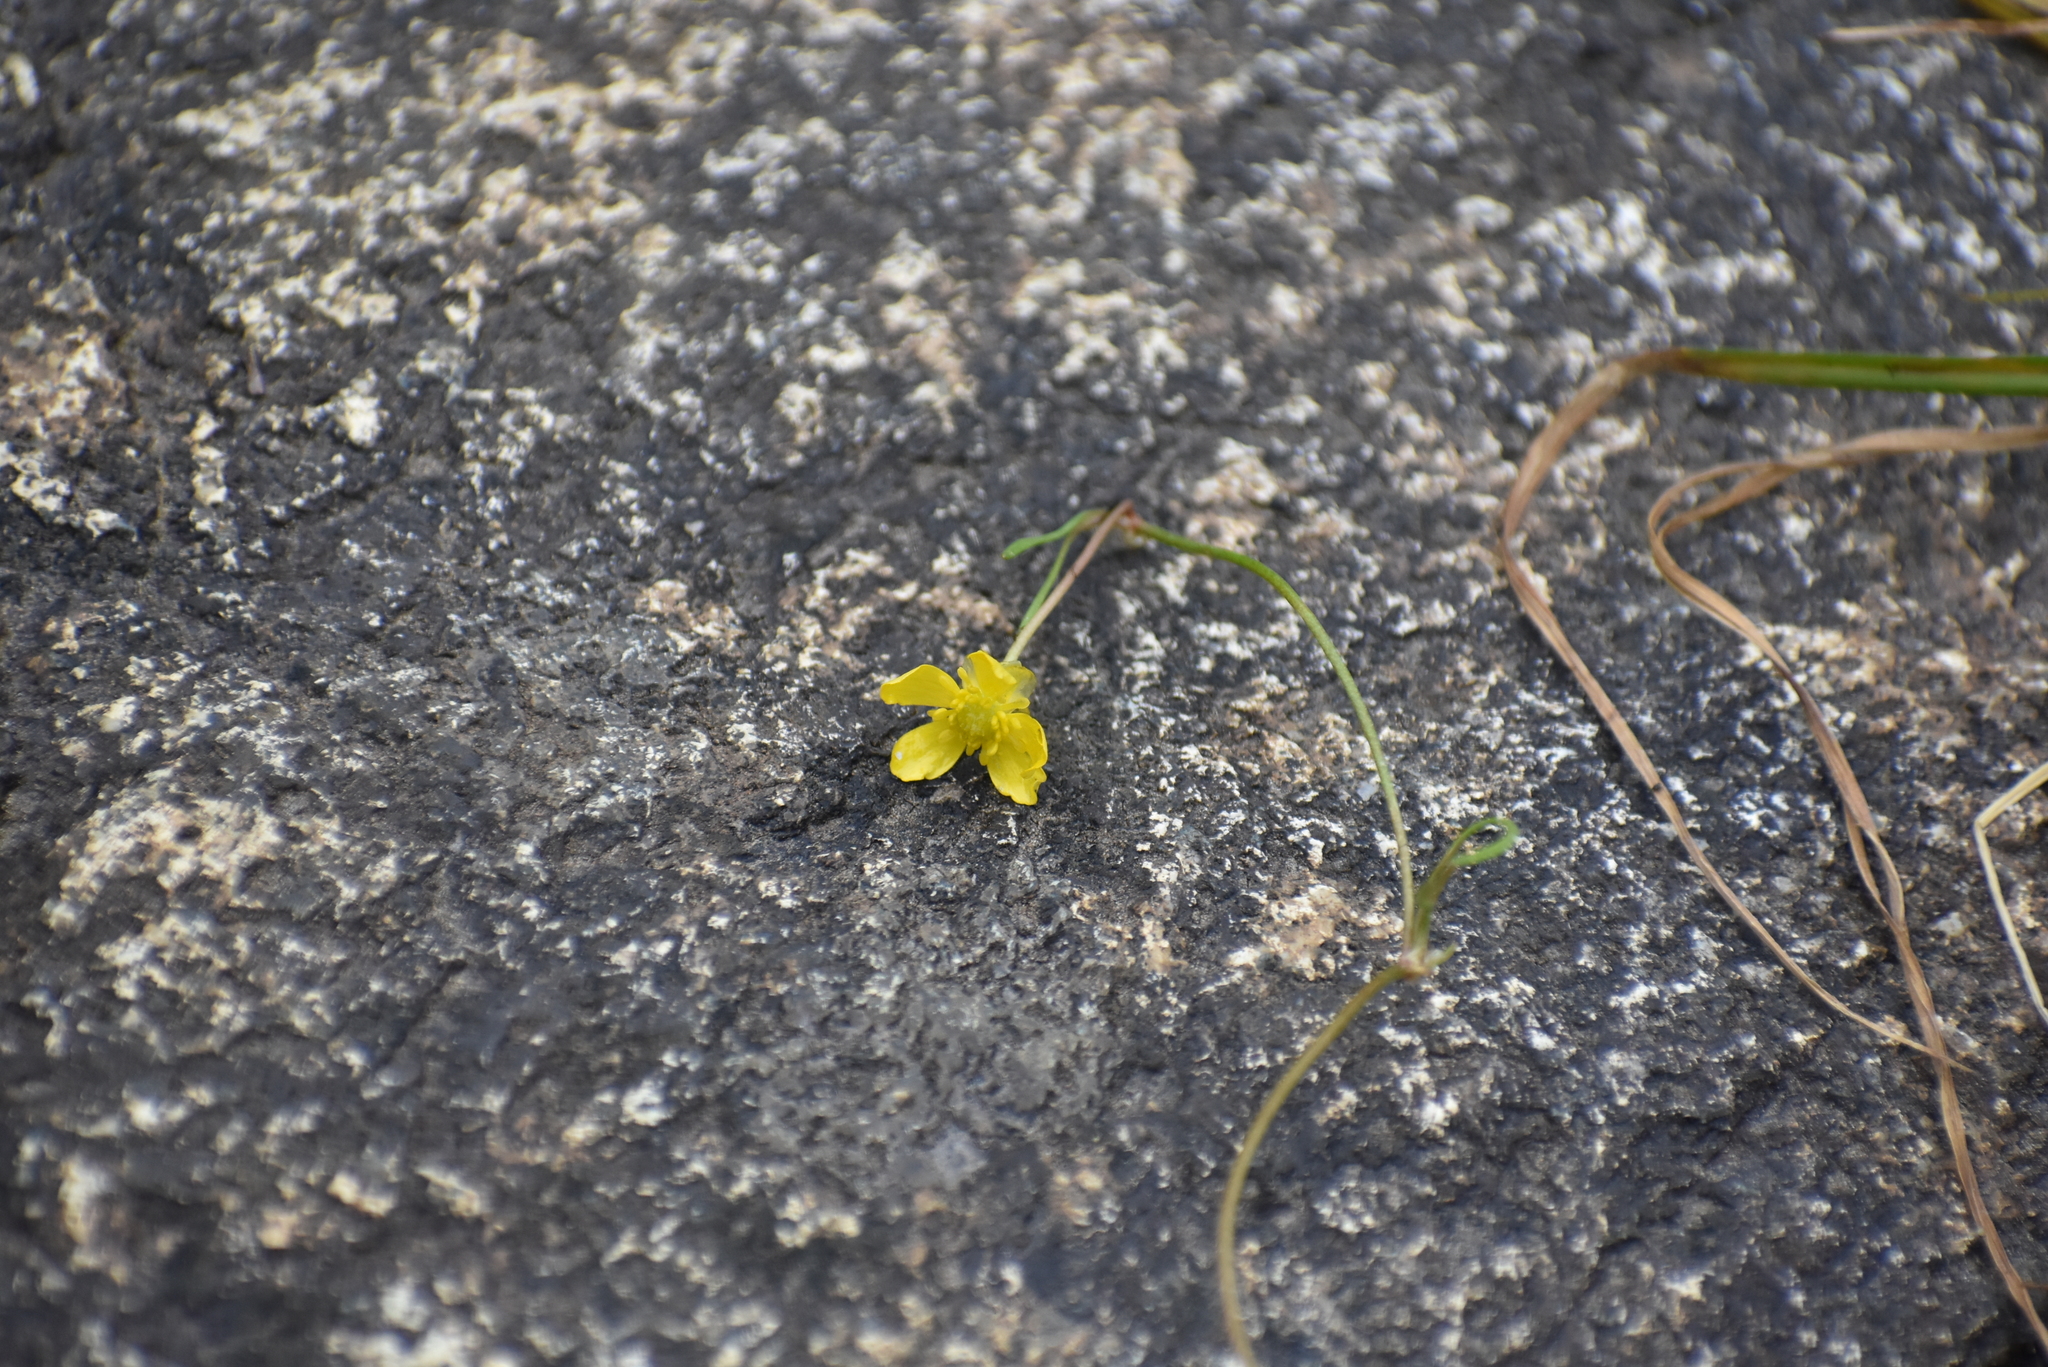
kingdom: Plantae
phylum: Tracheophyta
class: Magnoliopsida
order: Ranunculales
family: Ranunculaceae
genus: Ranunculus
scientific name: Ranunculus flammula
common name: Lesser spearwort
